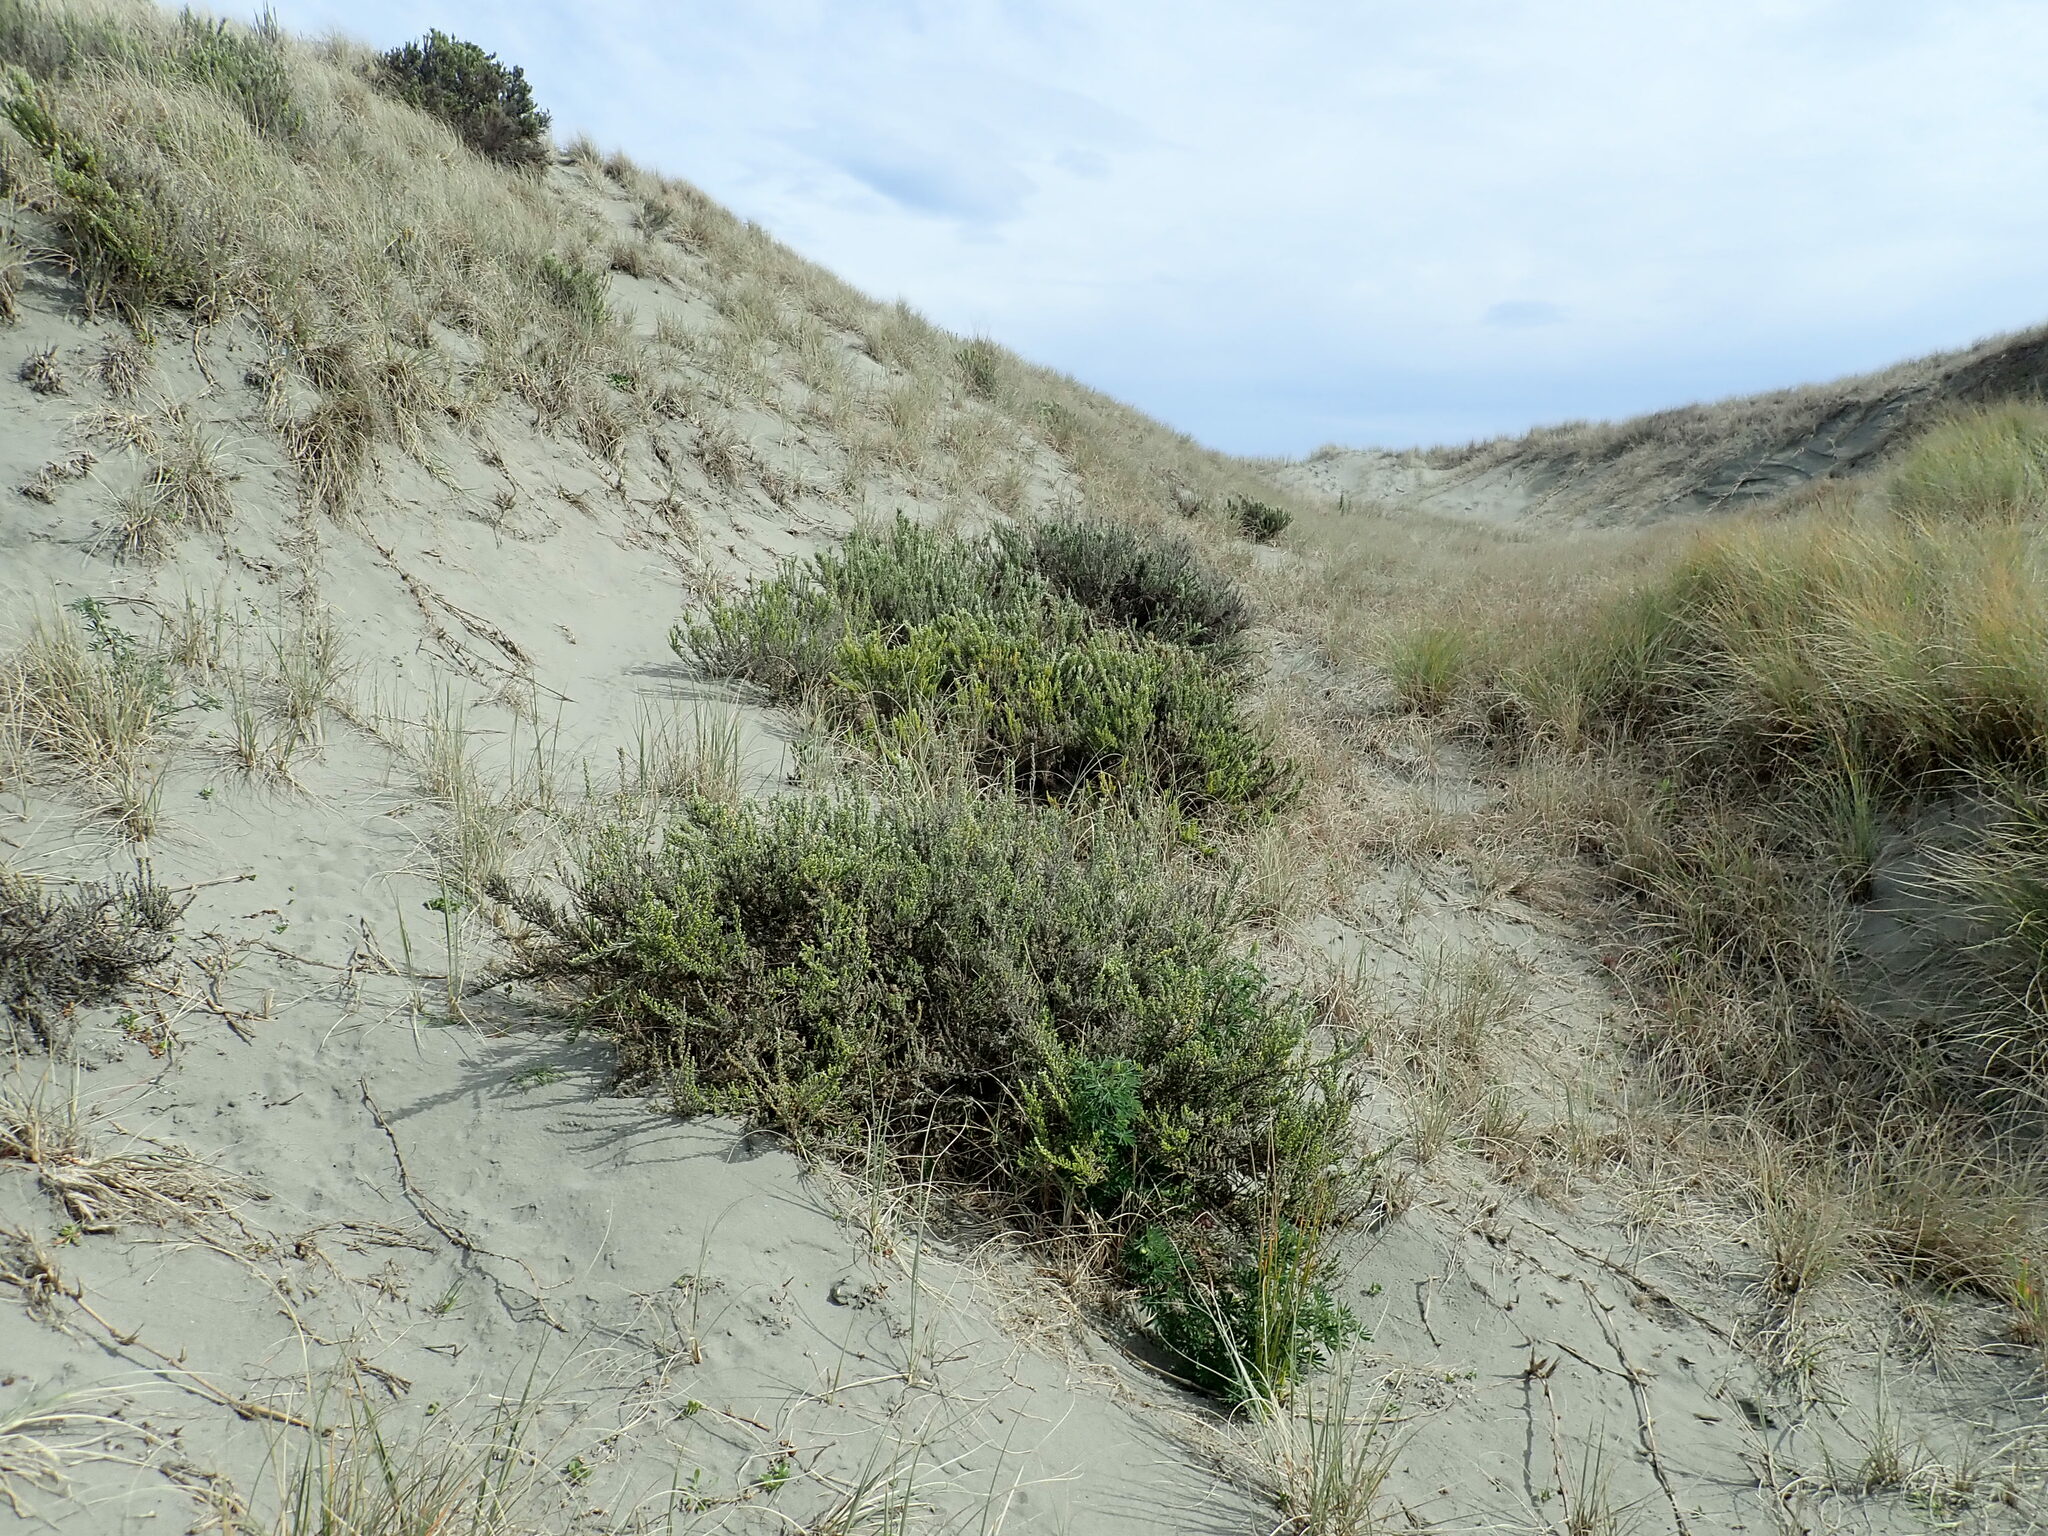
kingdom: Plantae
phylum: Tracheophyta
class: Magnoliopsida
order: Asterales
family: Asteraceae
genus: Ozothamnus
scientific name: Ozothamnus leptophyllus
